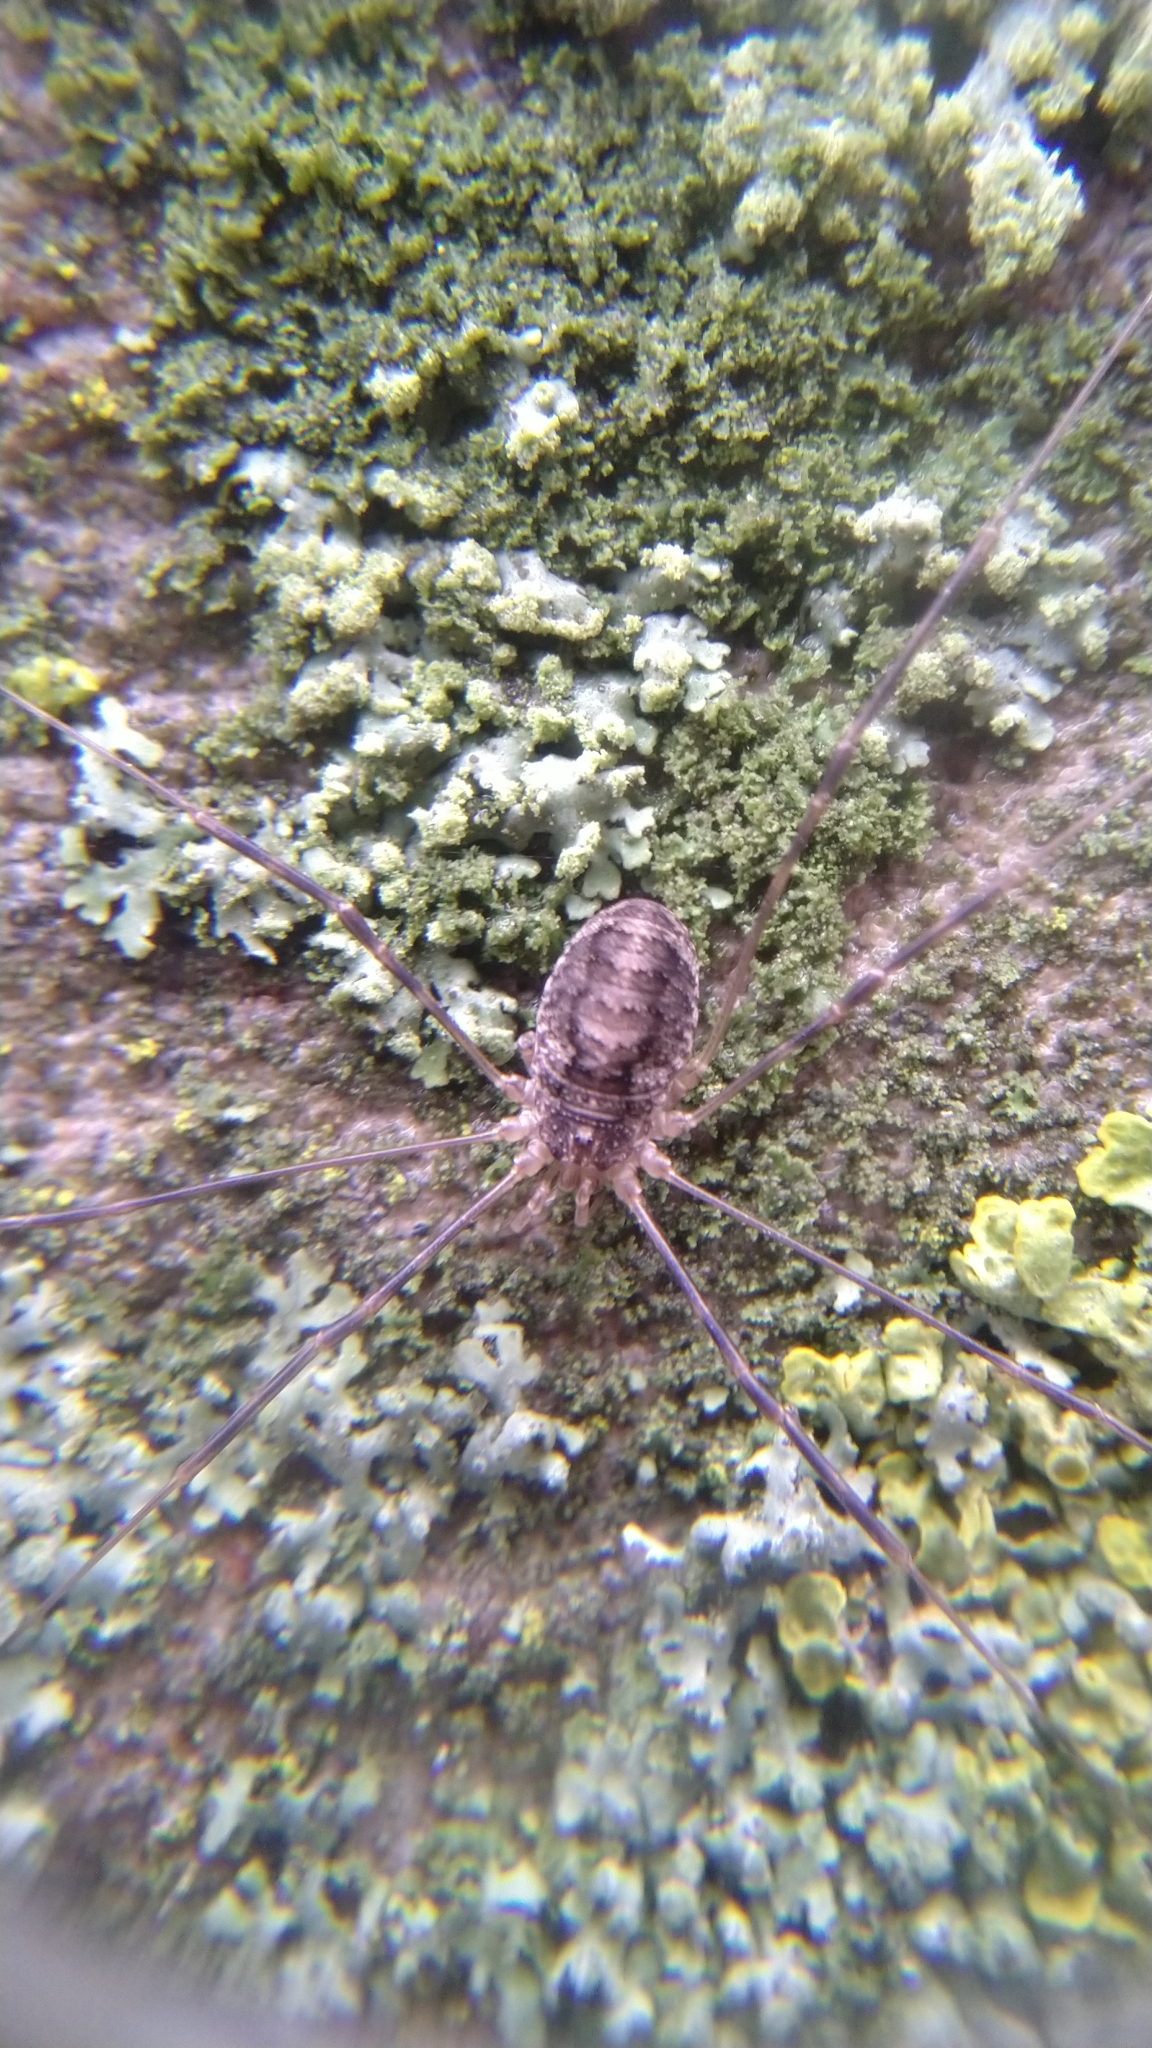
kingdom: Animalia
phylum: Arthropoda
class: Arachnida
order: Opiliones
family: Phalangiidae
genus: Opilio
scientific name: Opilio parietinus
